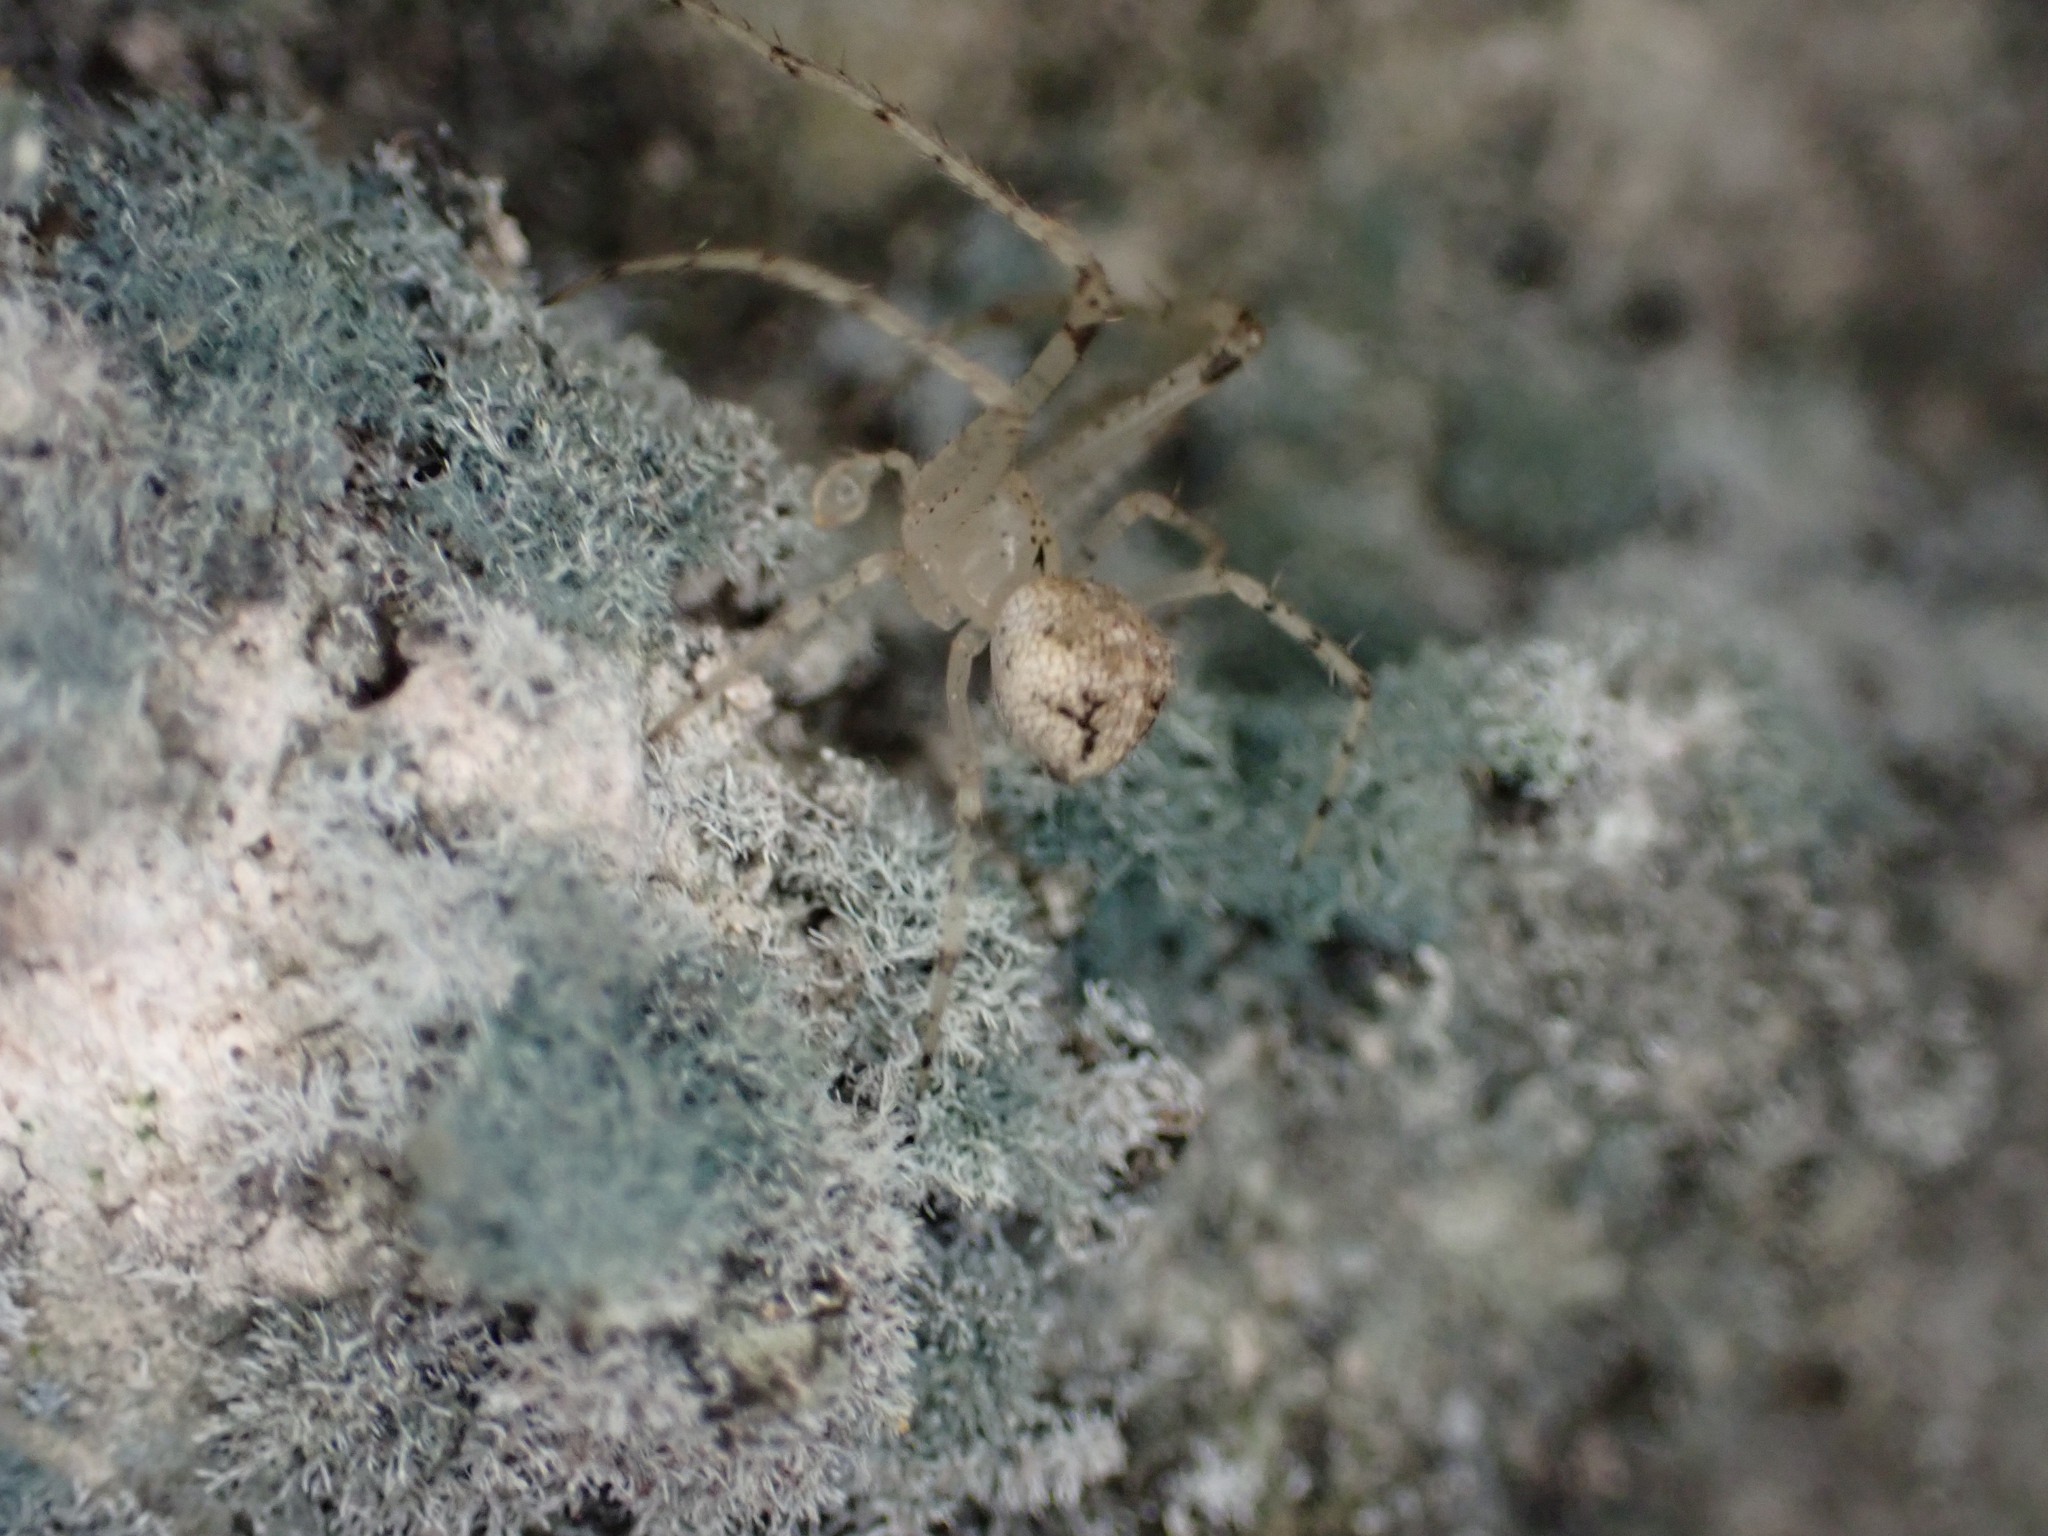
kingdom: Animalia
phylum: Arthropoda
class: Arachnida
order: Araneae
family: Mimetidae
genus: Mimetus
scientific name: Mimetus laevigatus
